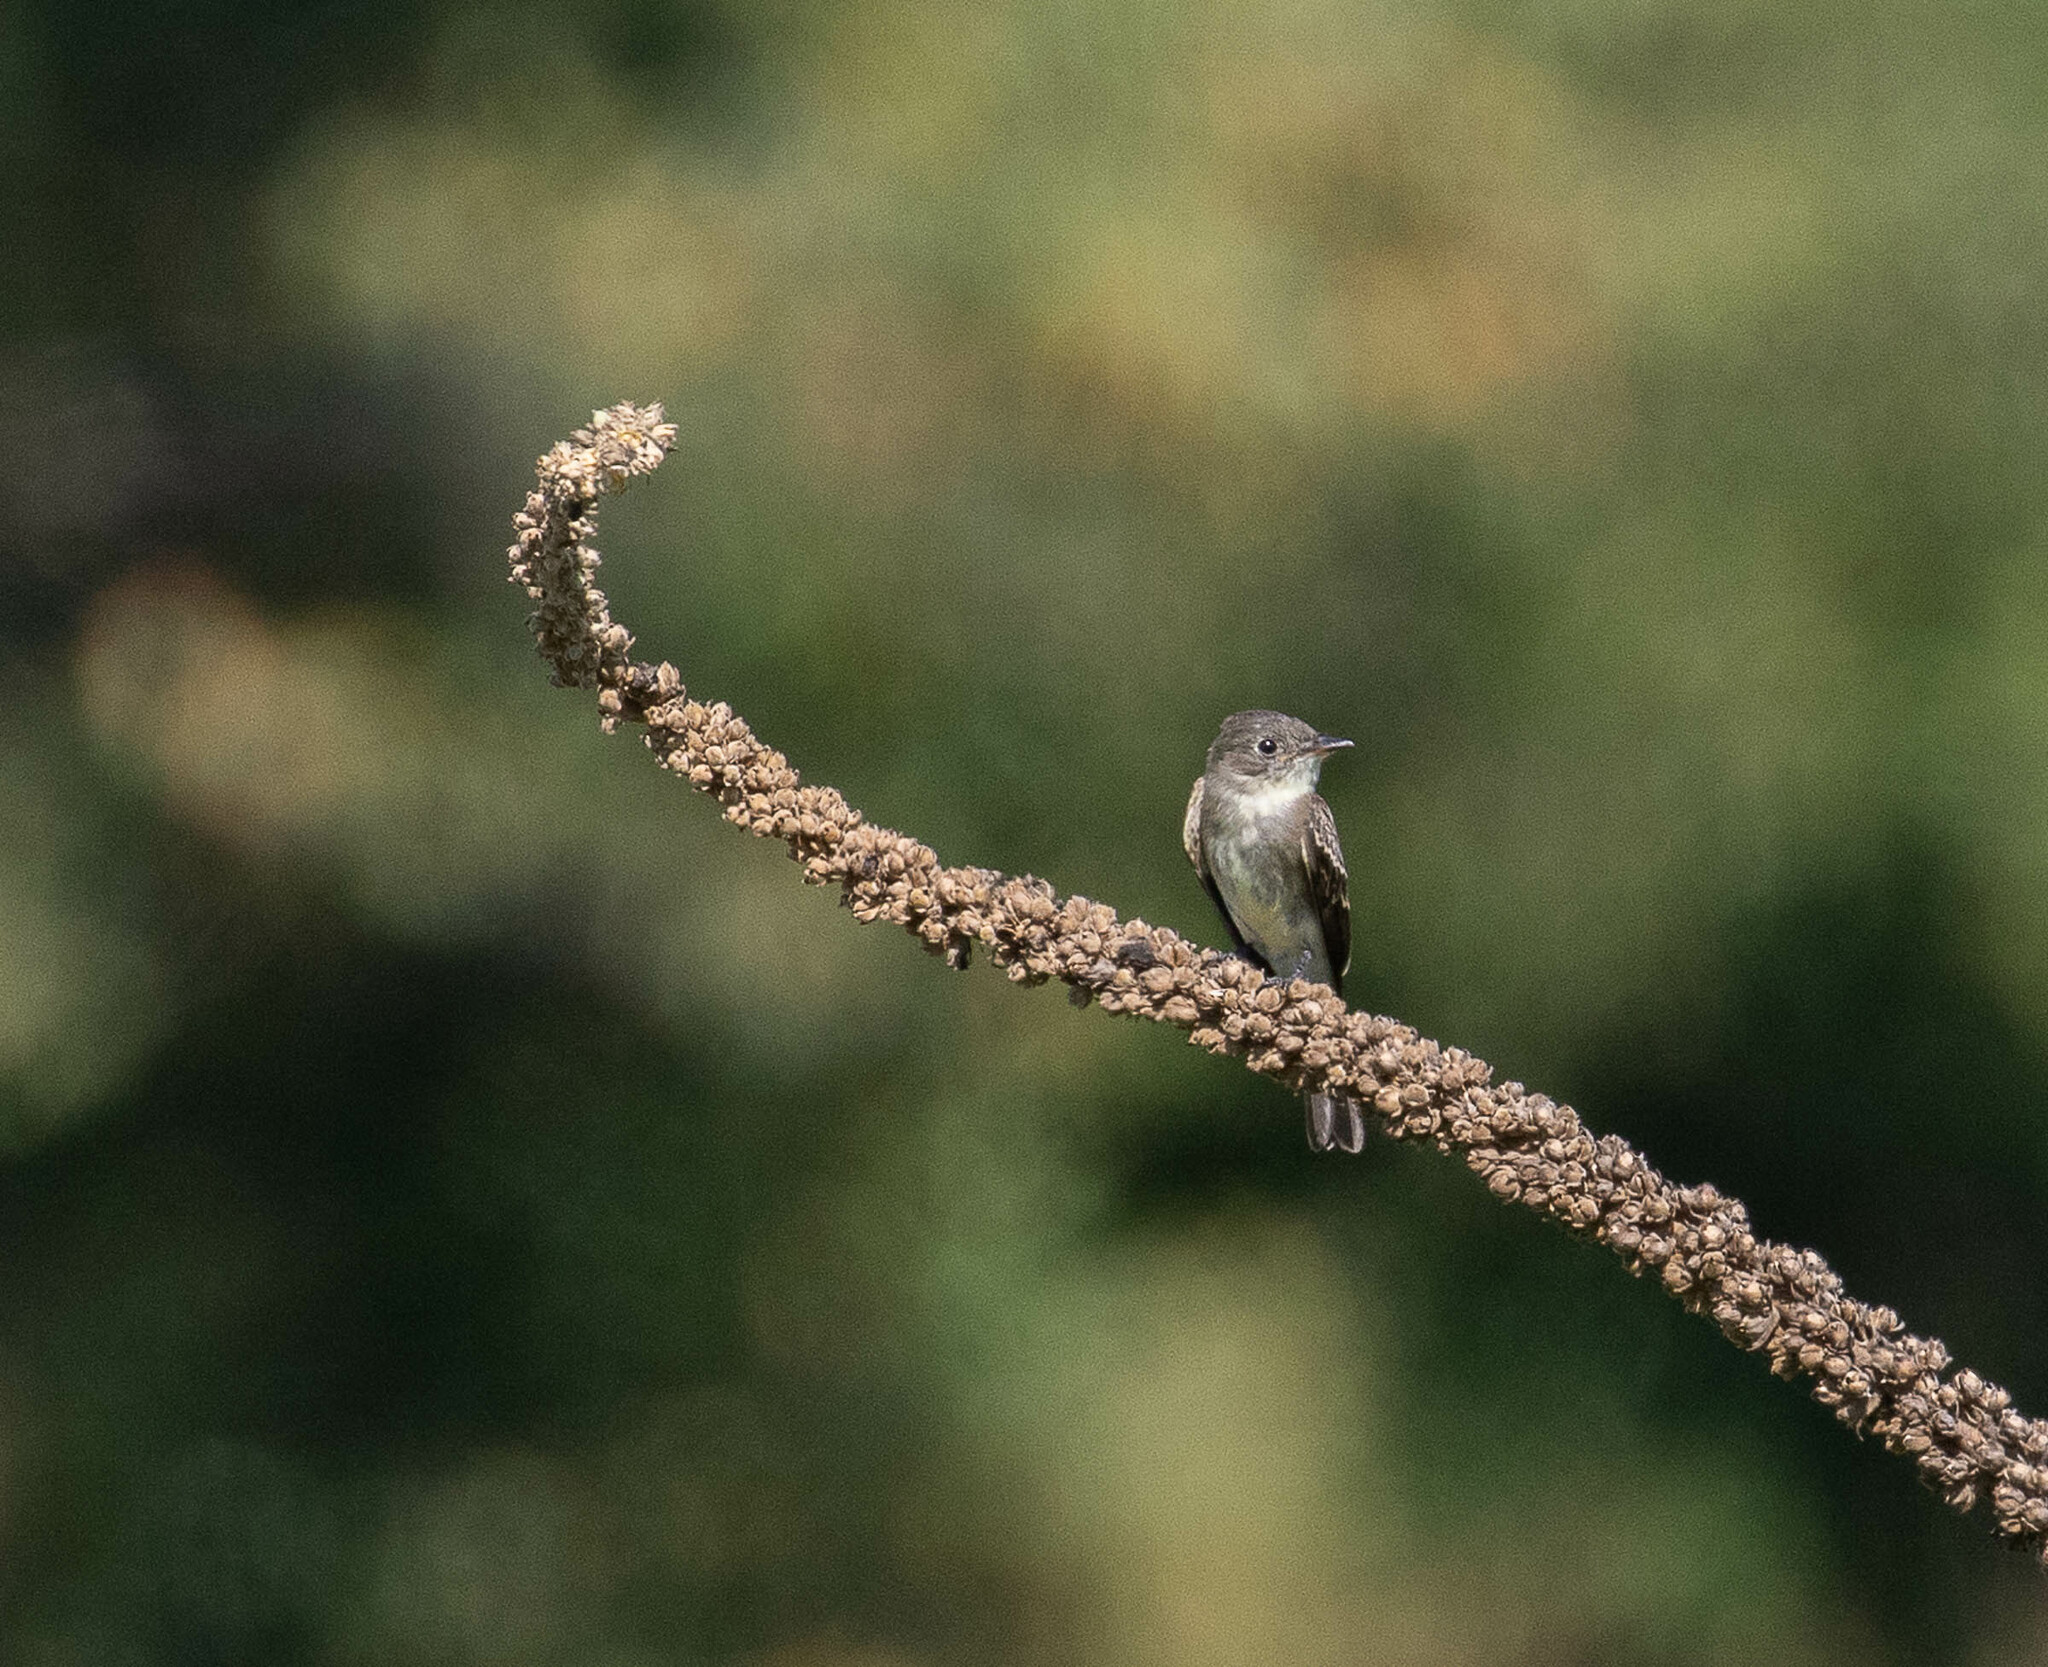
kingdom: Animalia
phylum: Chordata
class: Aves
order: Passeriformes
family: Tyrannidae
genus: Sayornis
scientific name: Sayornis phoebe
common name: Eastern phoebe
